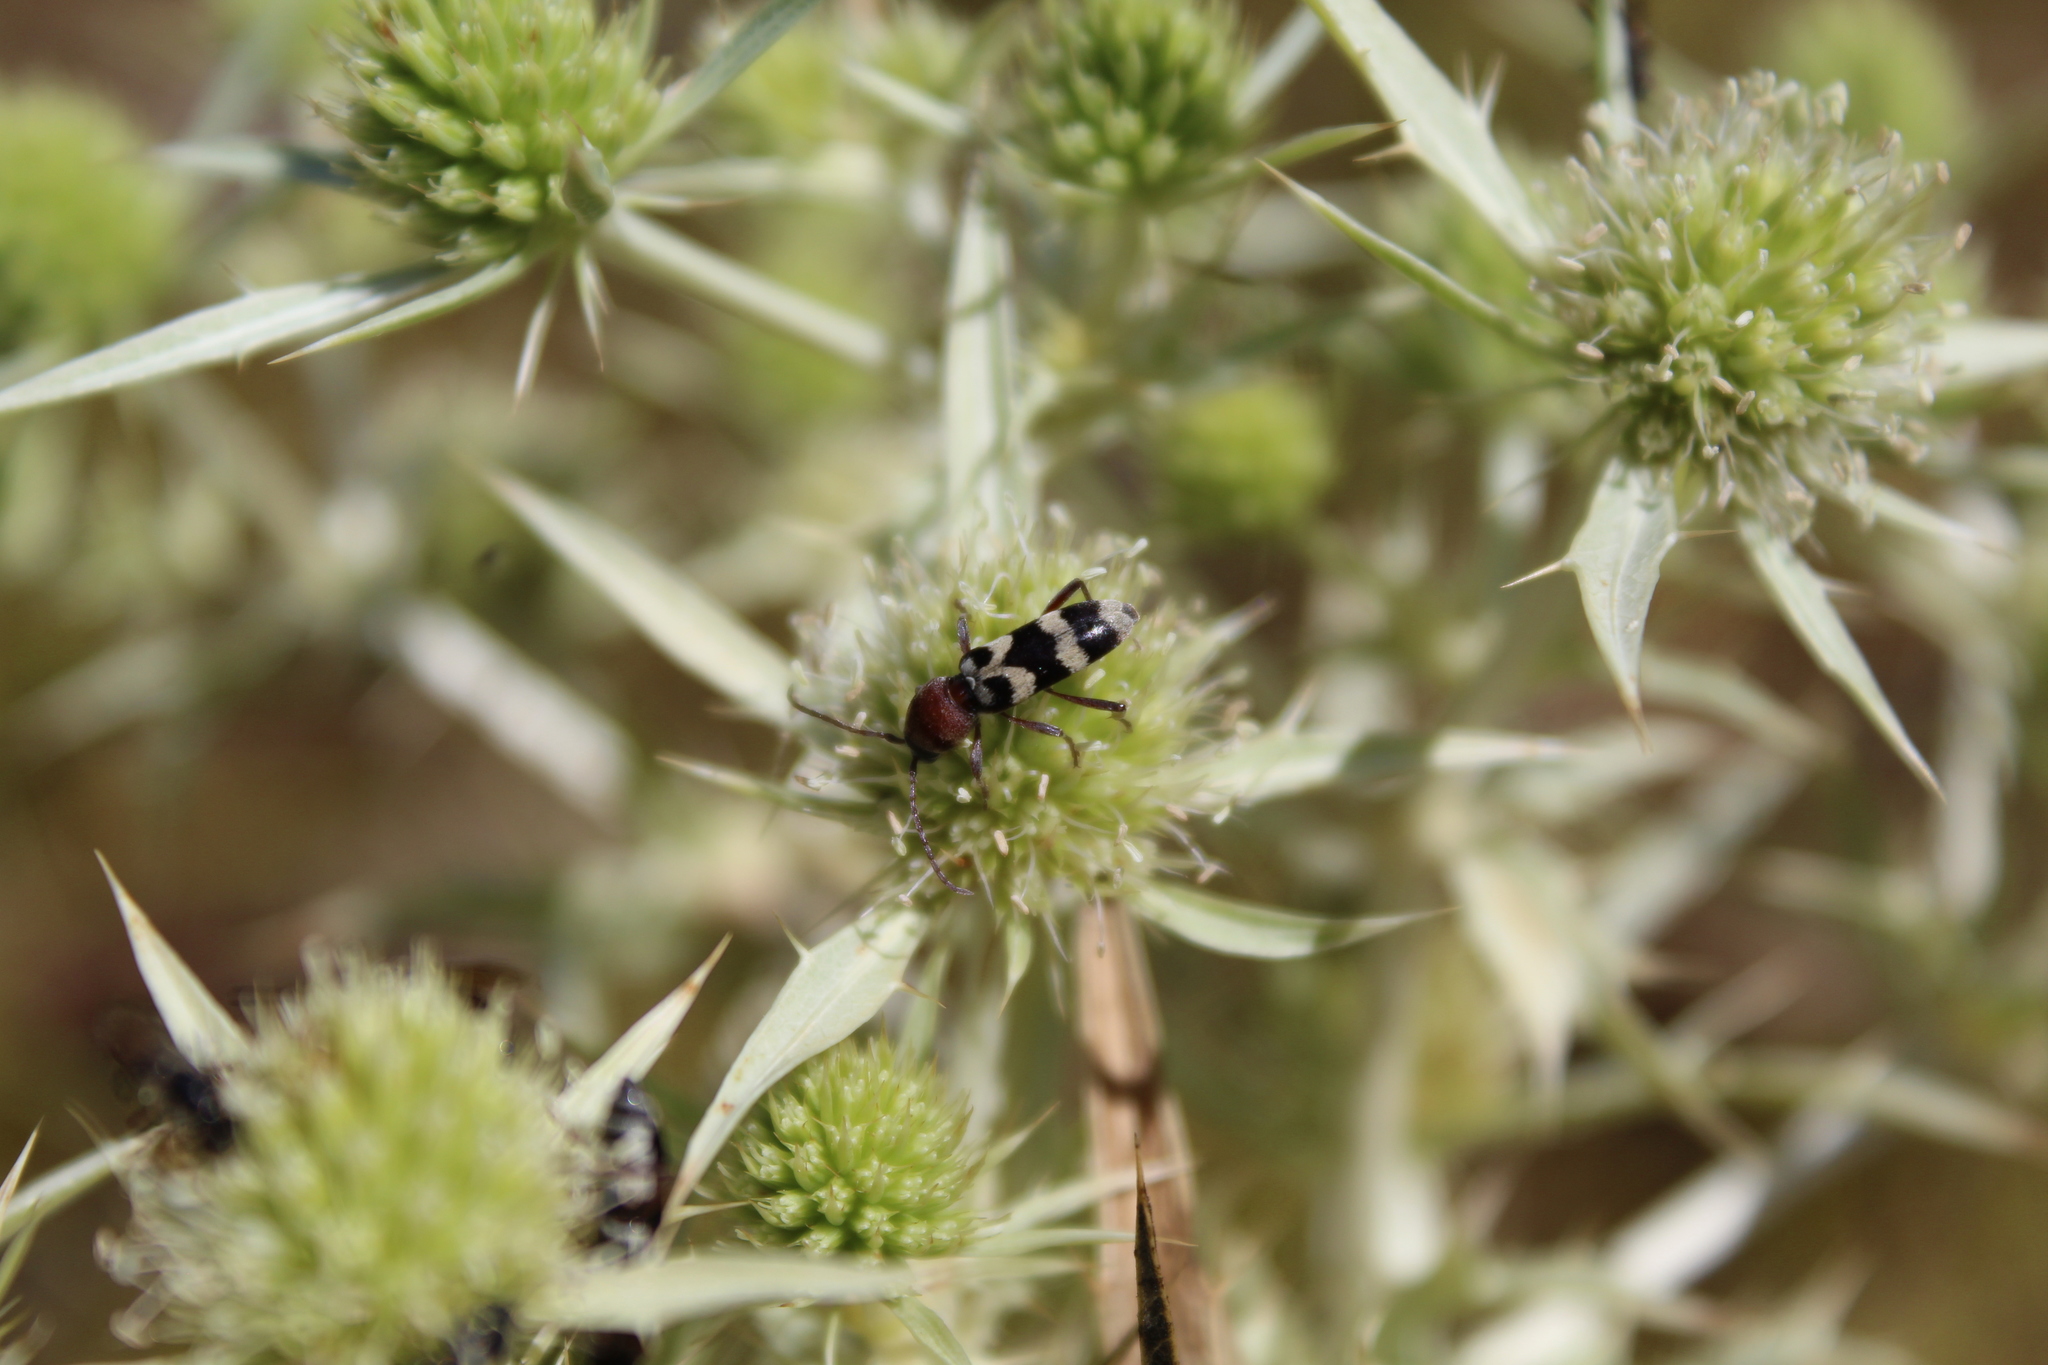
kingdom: Animalia
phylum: Arthropoda
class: Insecta
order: Coleoptera
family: Cerambycidae
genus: Chlorophorus
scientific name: Chlorophorus trifasciatus
